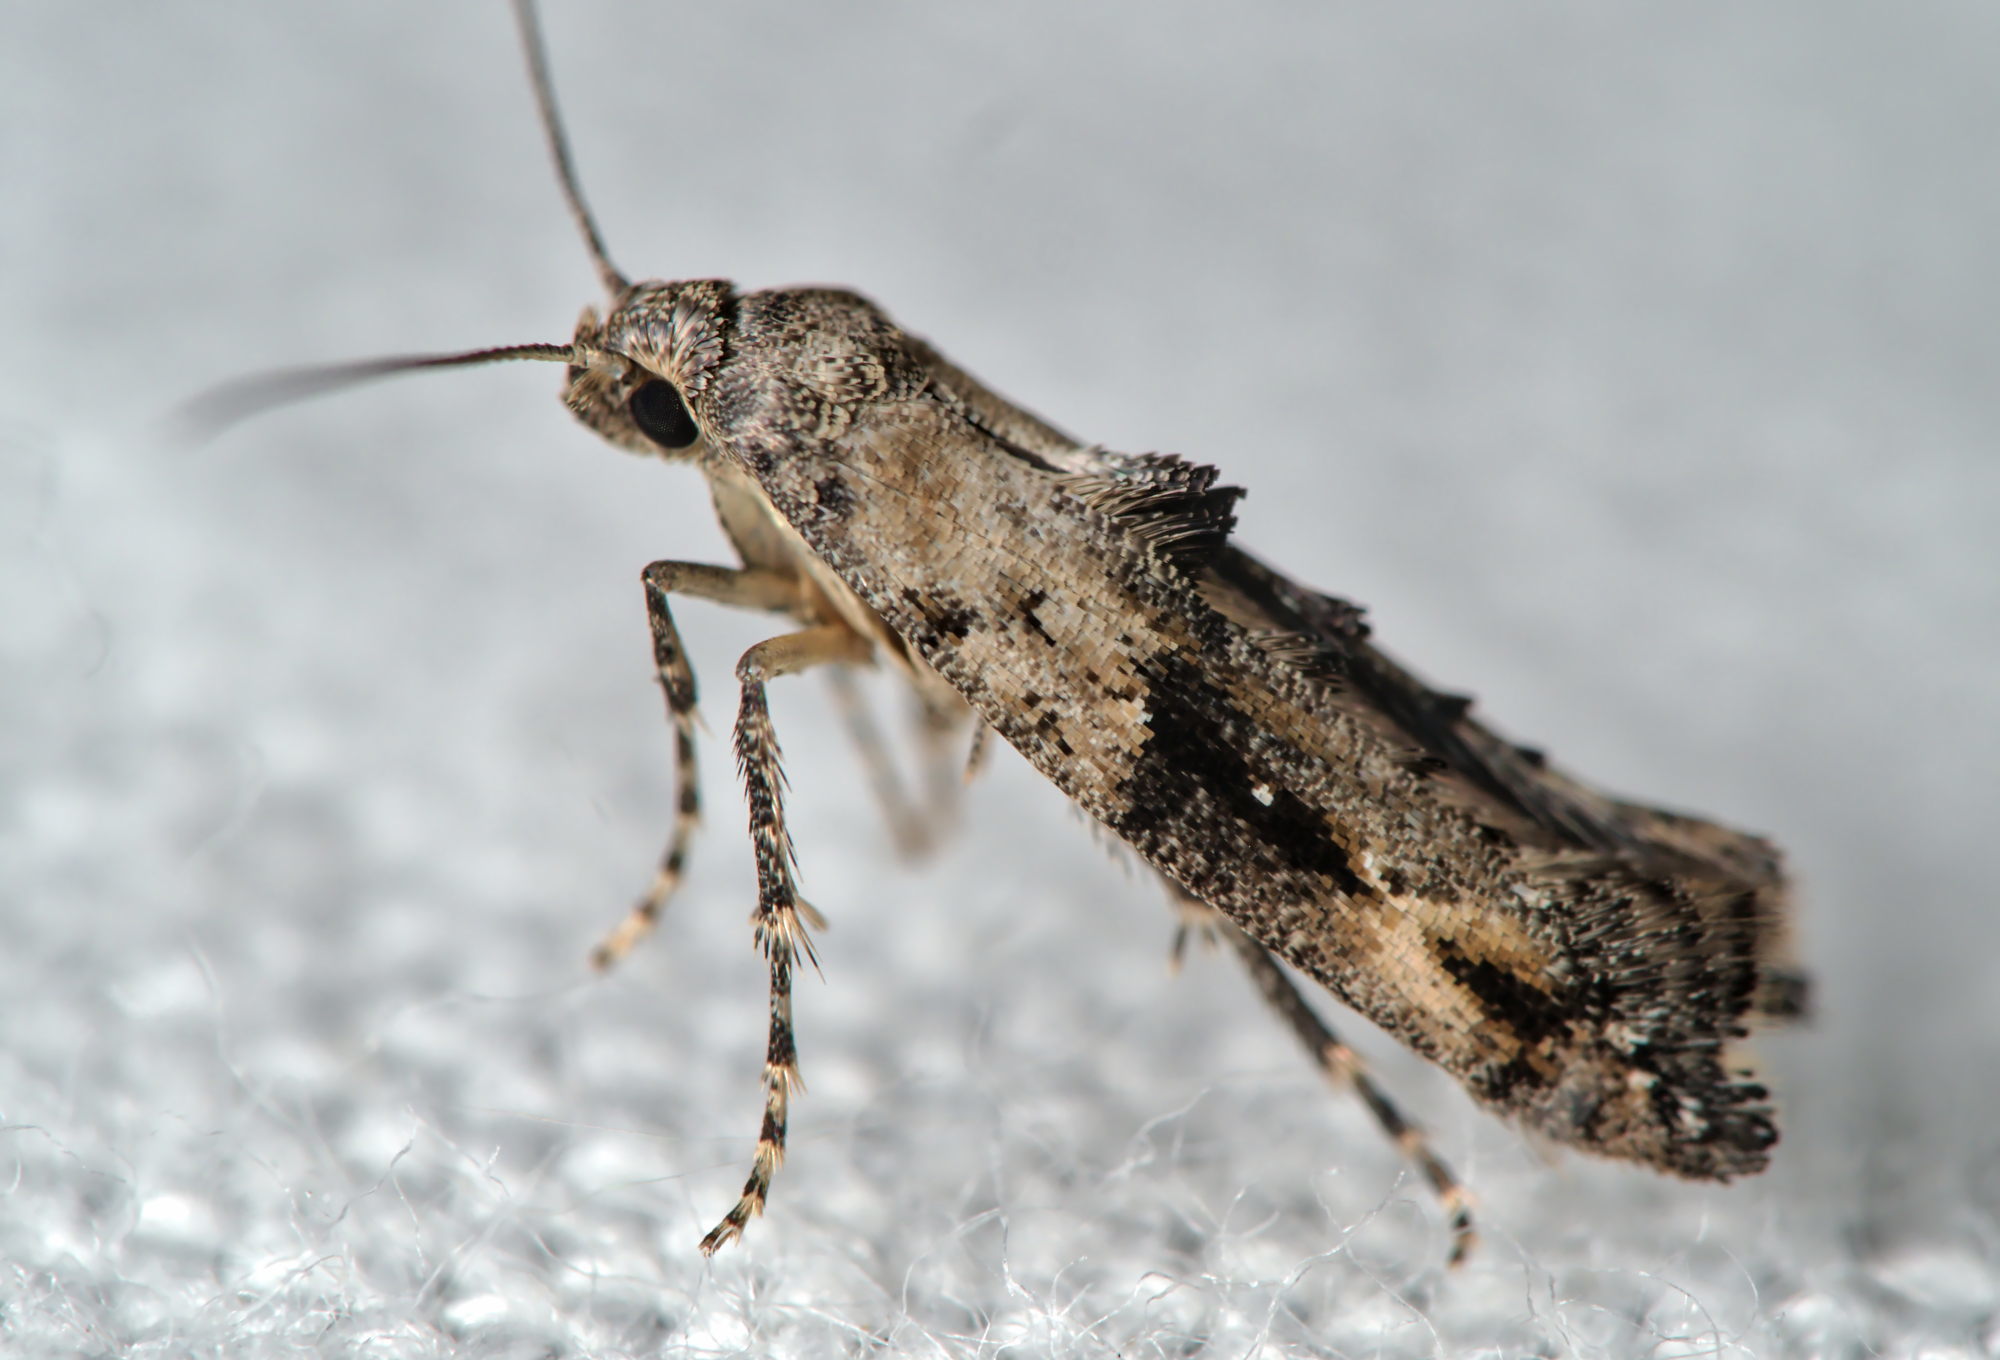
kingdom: Animalia
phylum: Arthropoda
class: Insecta
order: Lepidoptera
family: Epermeniidae
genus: Epermenia
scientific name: Epermenia chaerophyllellus
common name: Garden lance-wing
